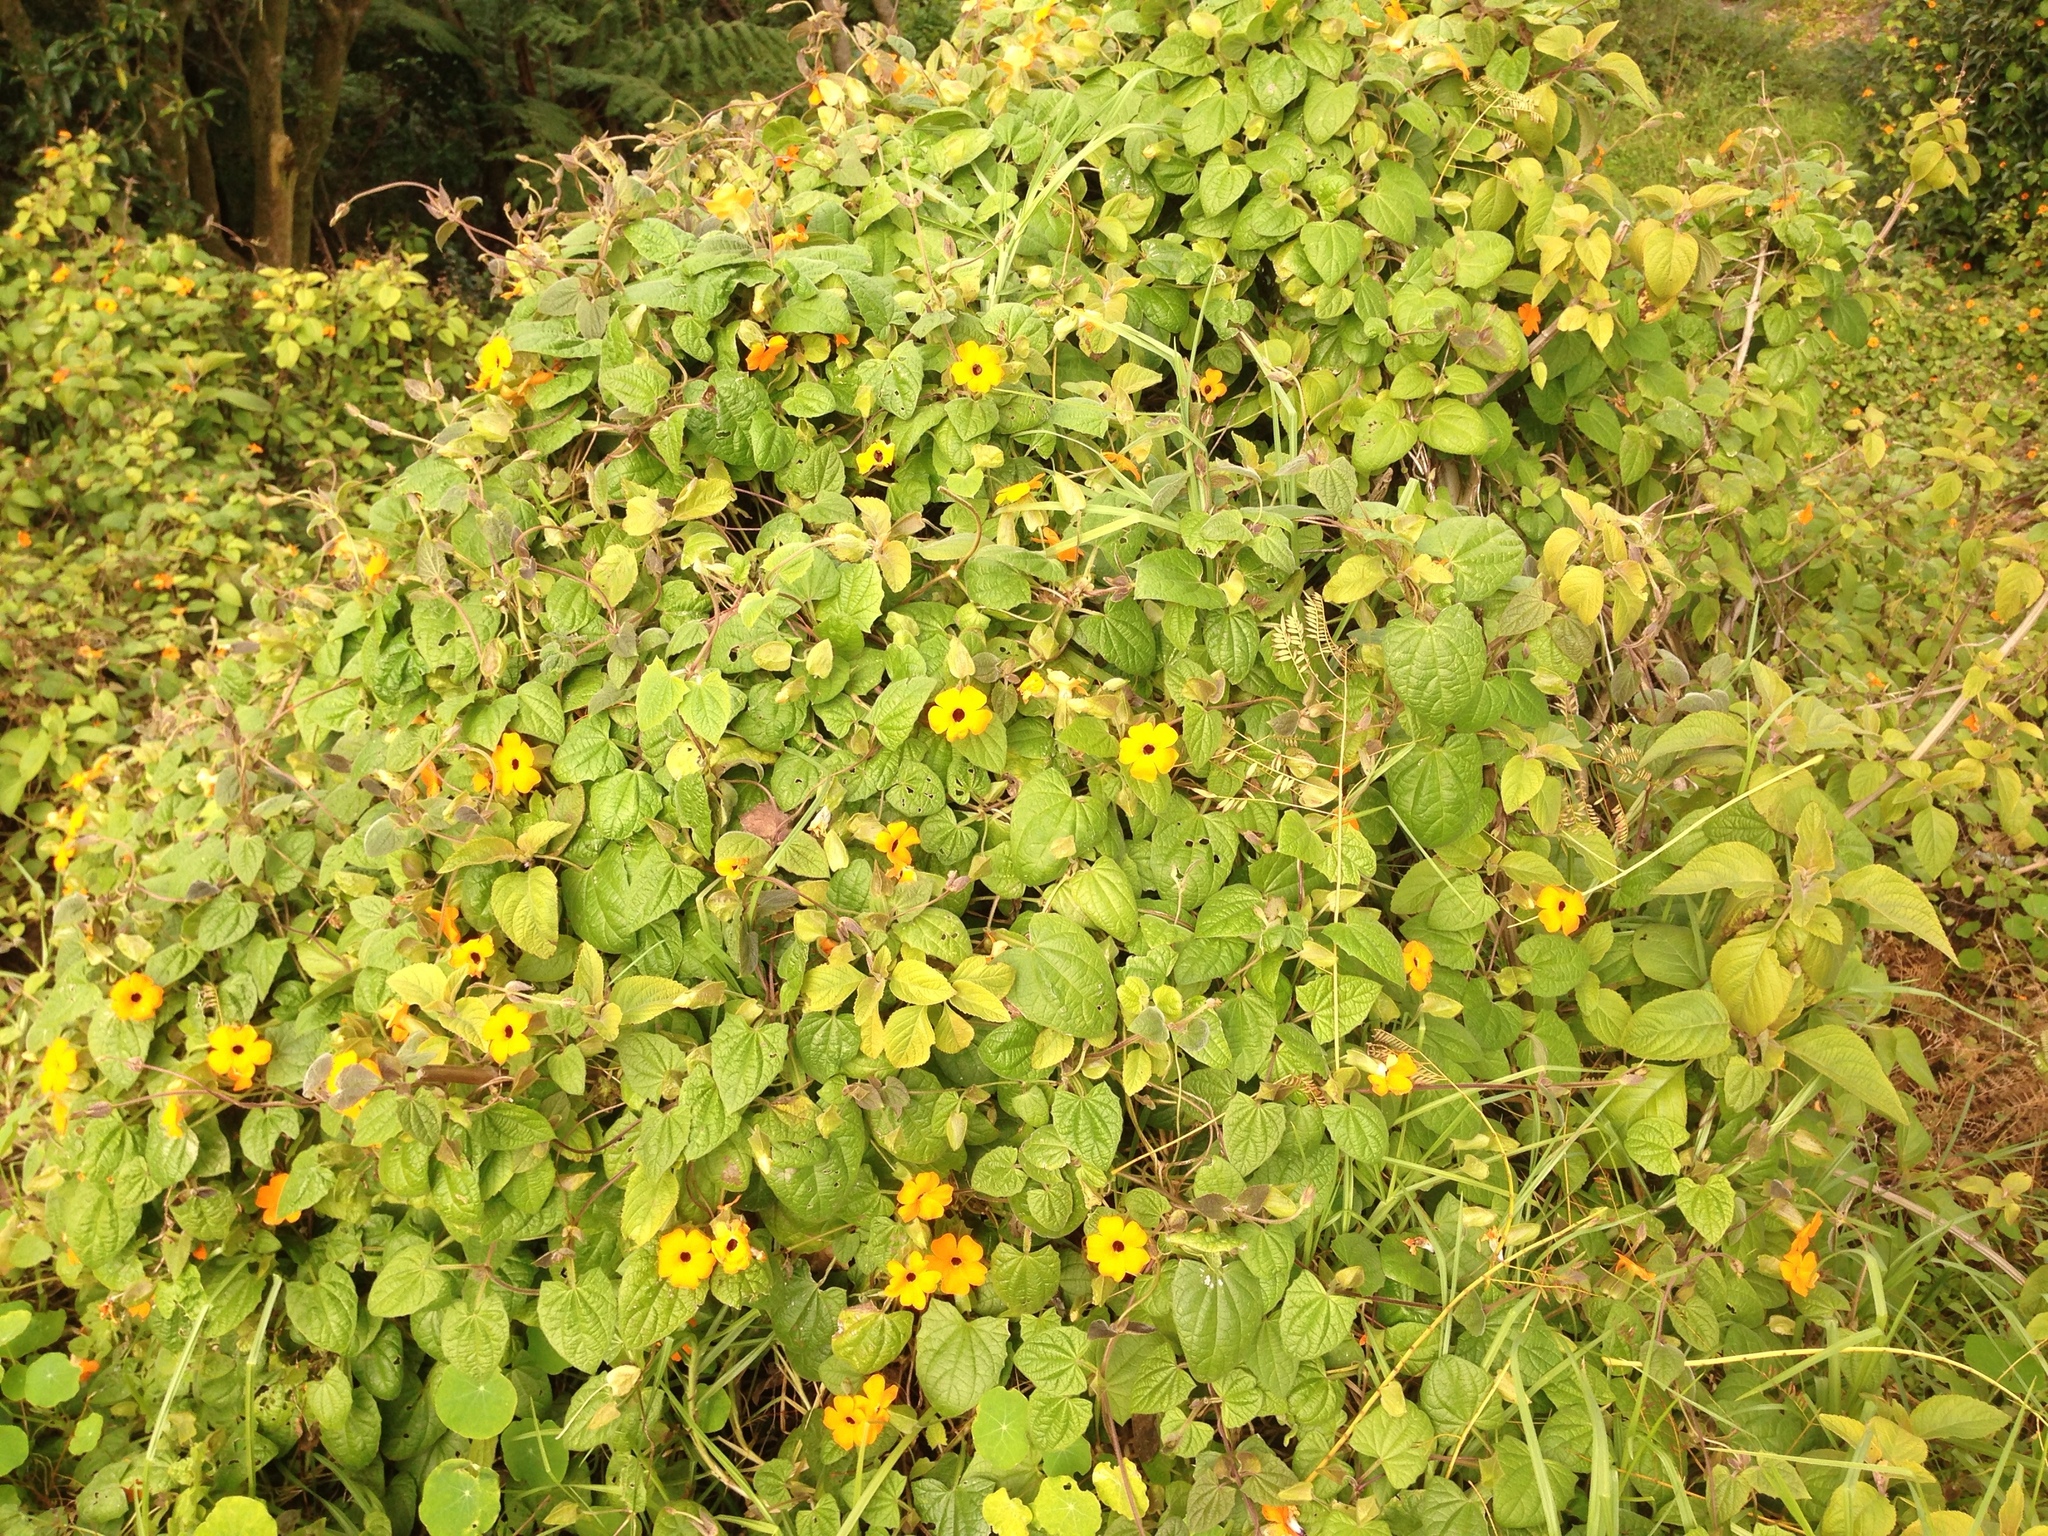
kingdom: Plantae
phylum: Tracheophyta
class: Magnoliopsida
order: Lamiales
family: Acanthaceae
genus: Thunbergia
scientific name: Thunbergia alata
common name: Blackeyed susan vine
